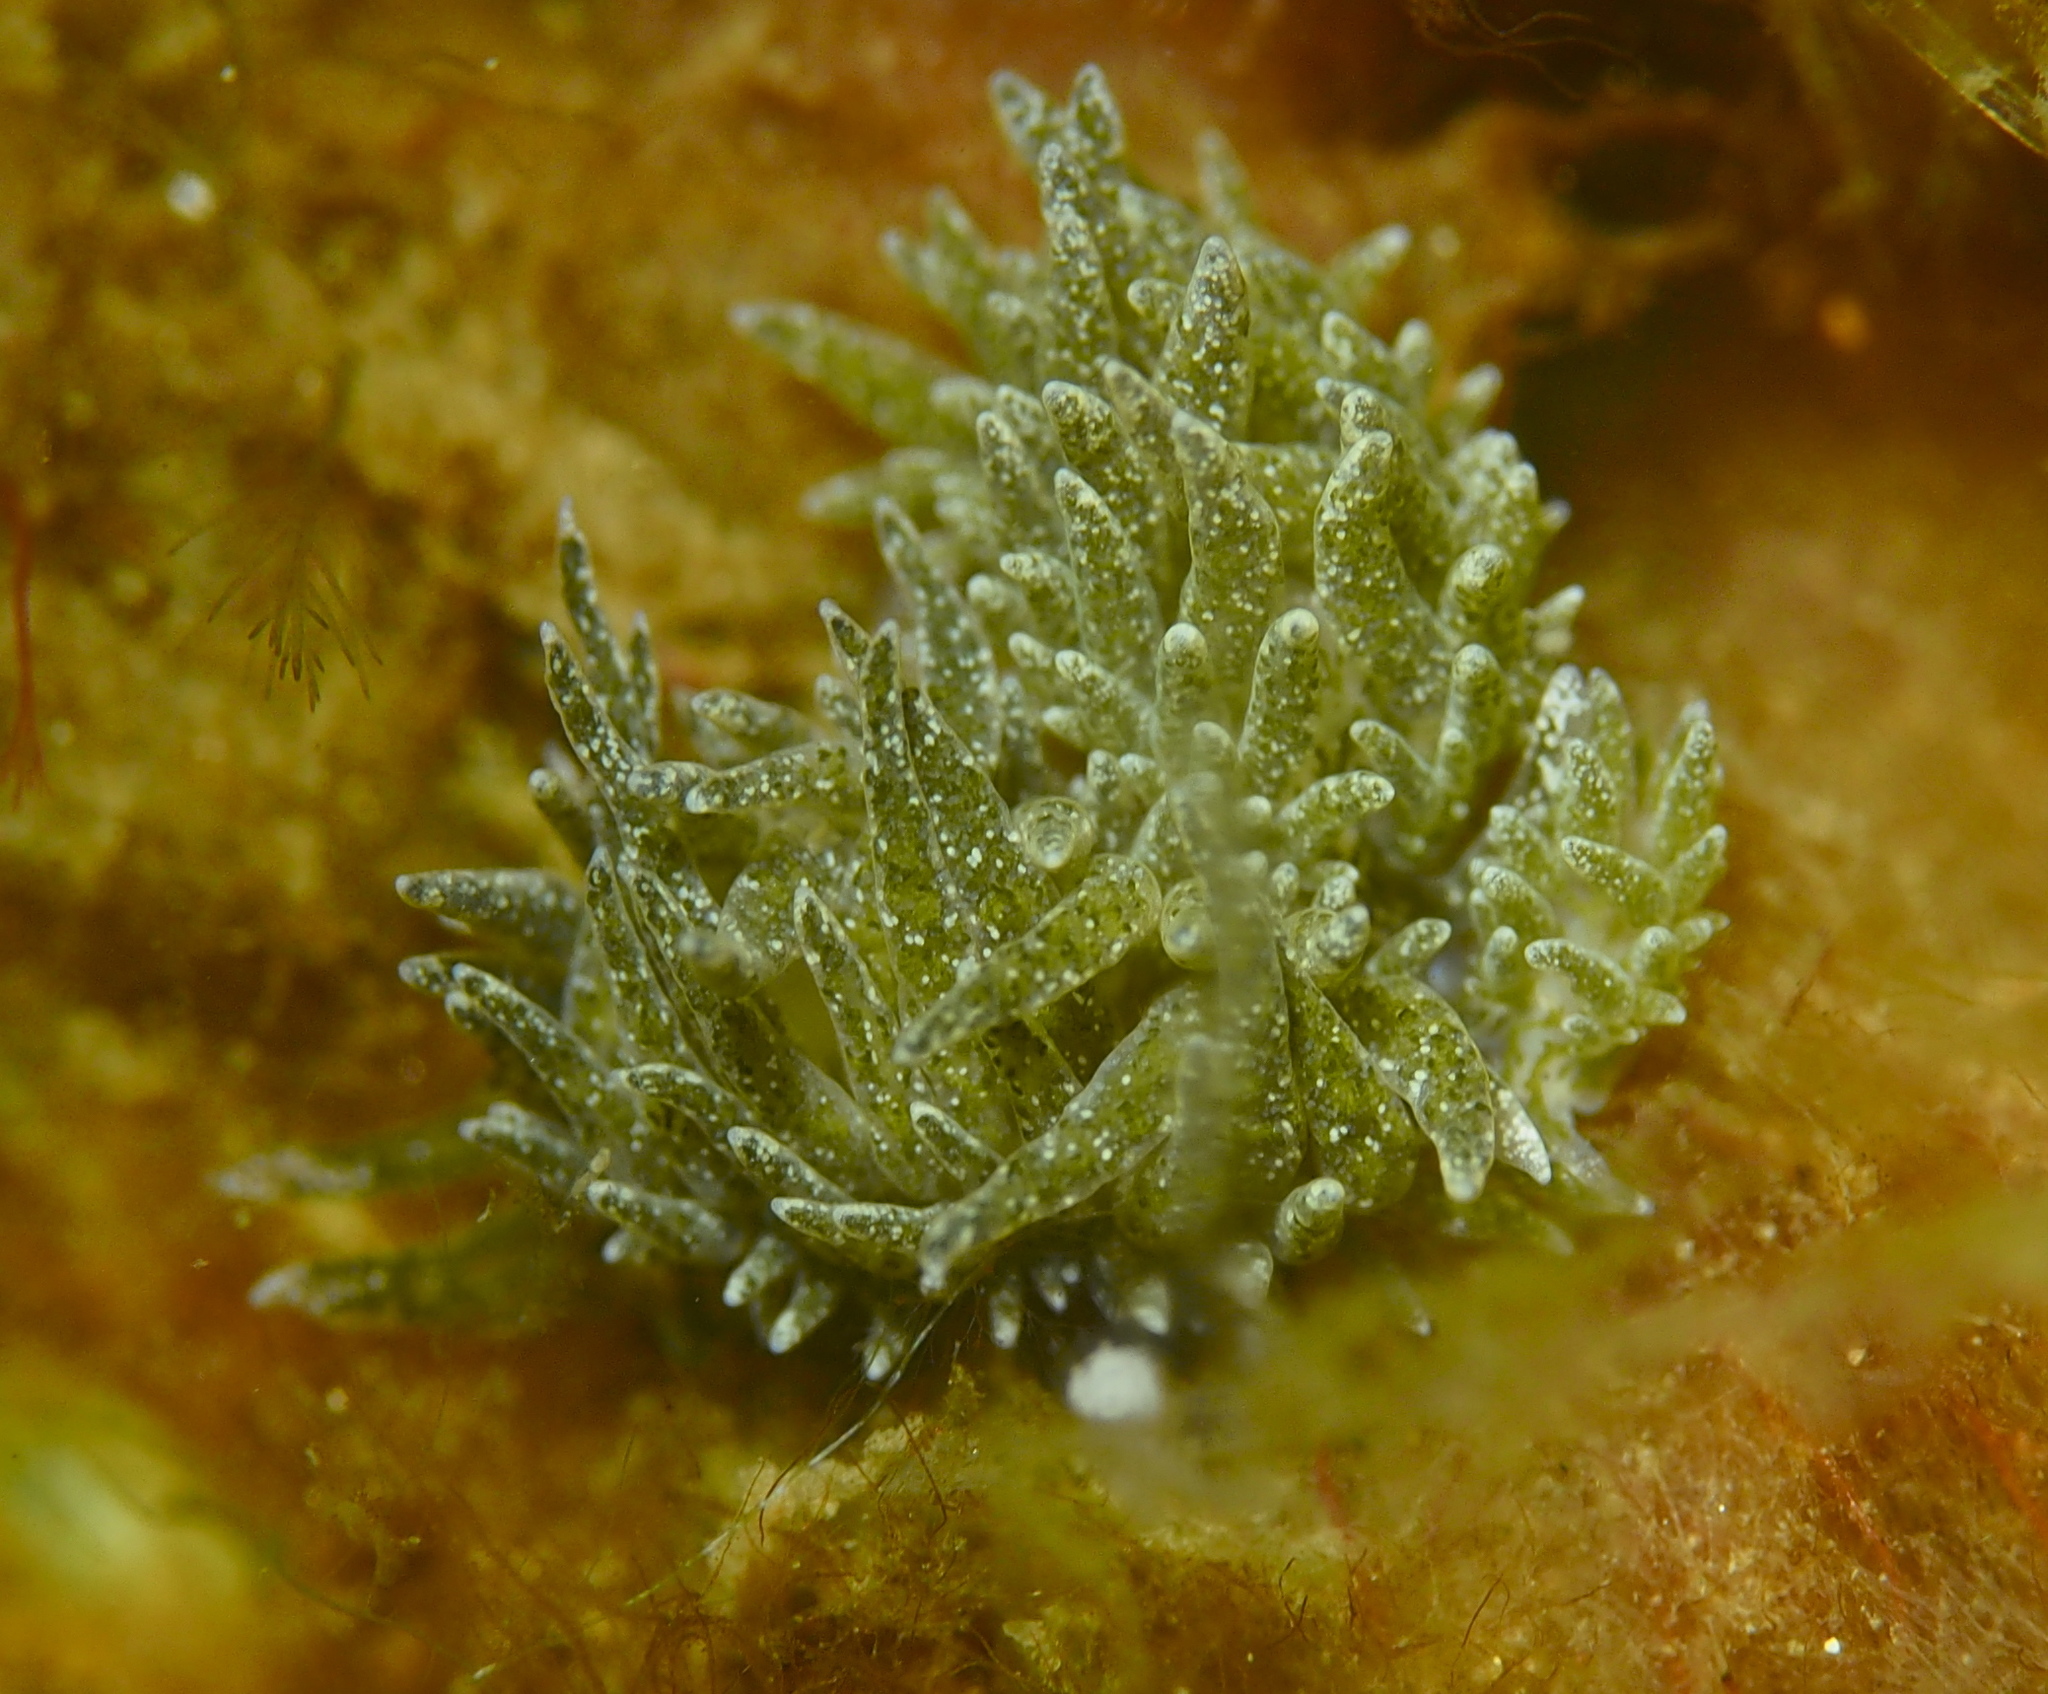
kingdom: Animalia
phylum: Mollusca
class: Gastropoda
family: Limapontiidae
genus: Placida
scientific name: Placida dendritica
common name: Dendritic nudibranch
